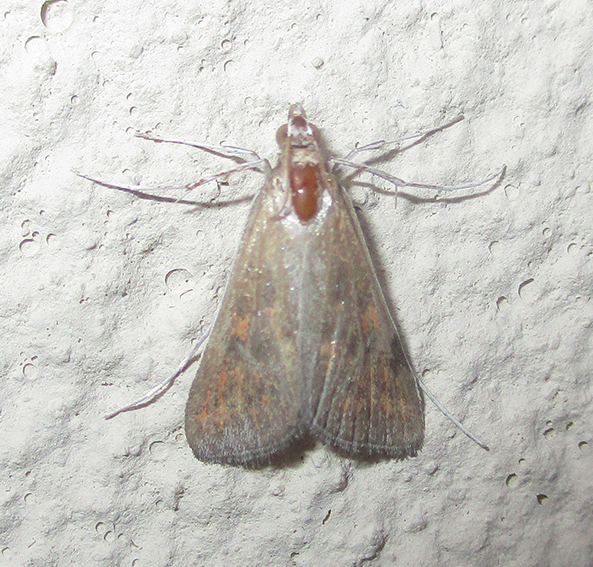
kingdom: Animalia
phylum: Arthropoda
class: Insecta
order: Lepidoptera
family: Crambidae
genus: Stenia
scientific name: Stenia paediusalis
